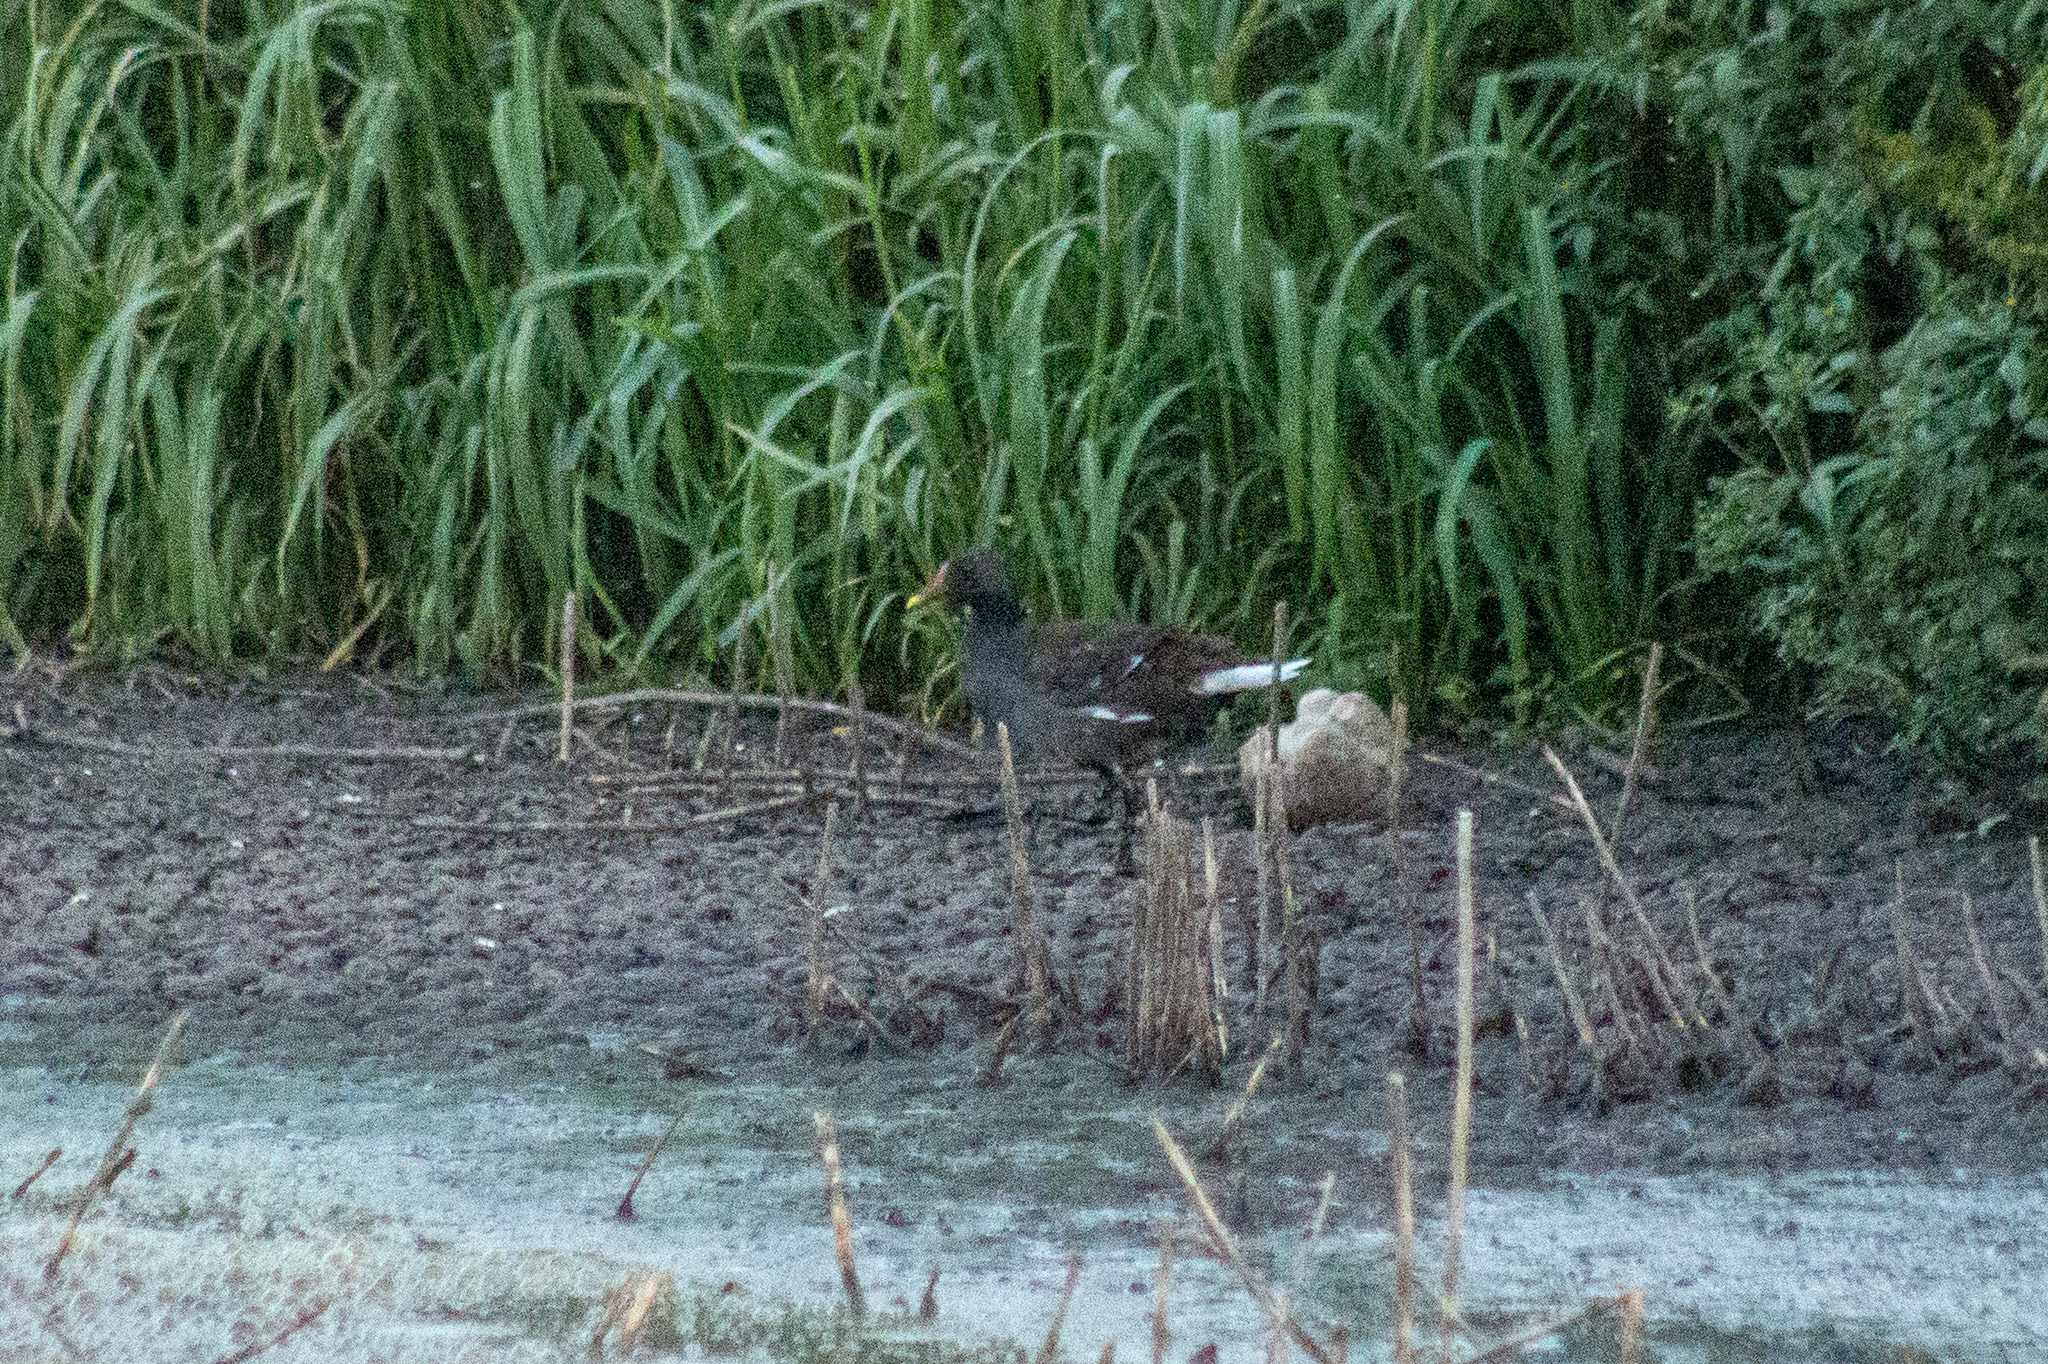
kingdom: Animalia
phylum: Chordata
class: Aves
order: Gruiformes
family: Rallidae
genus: Gallinula
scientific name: Gallinula chloropus
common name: Common moorhen
